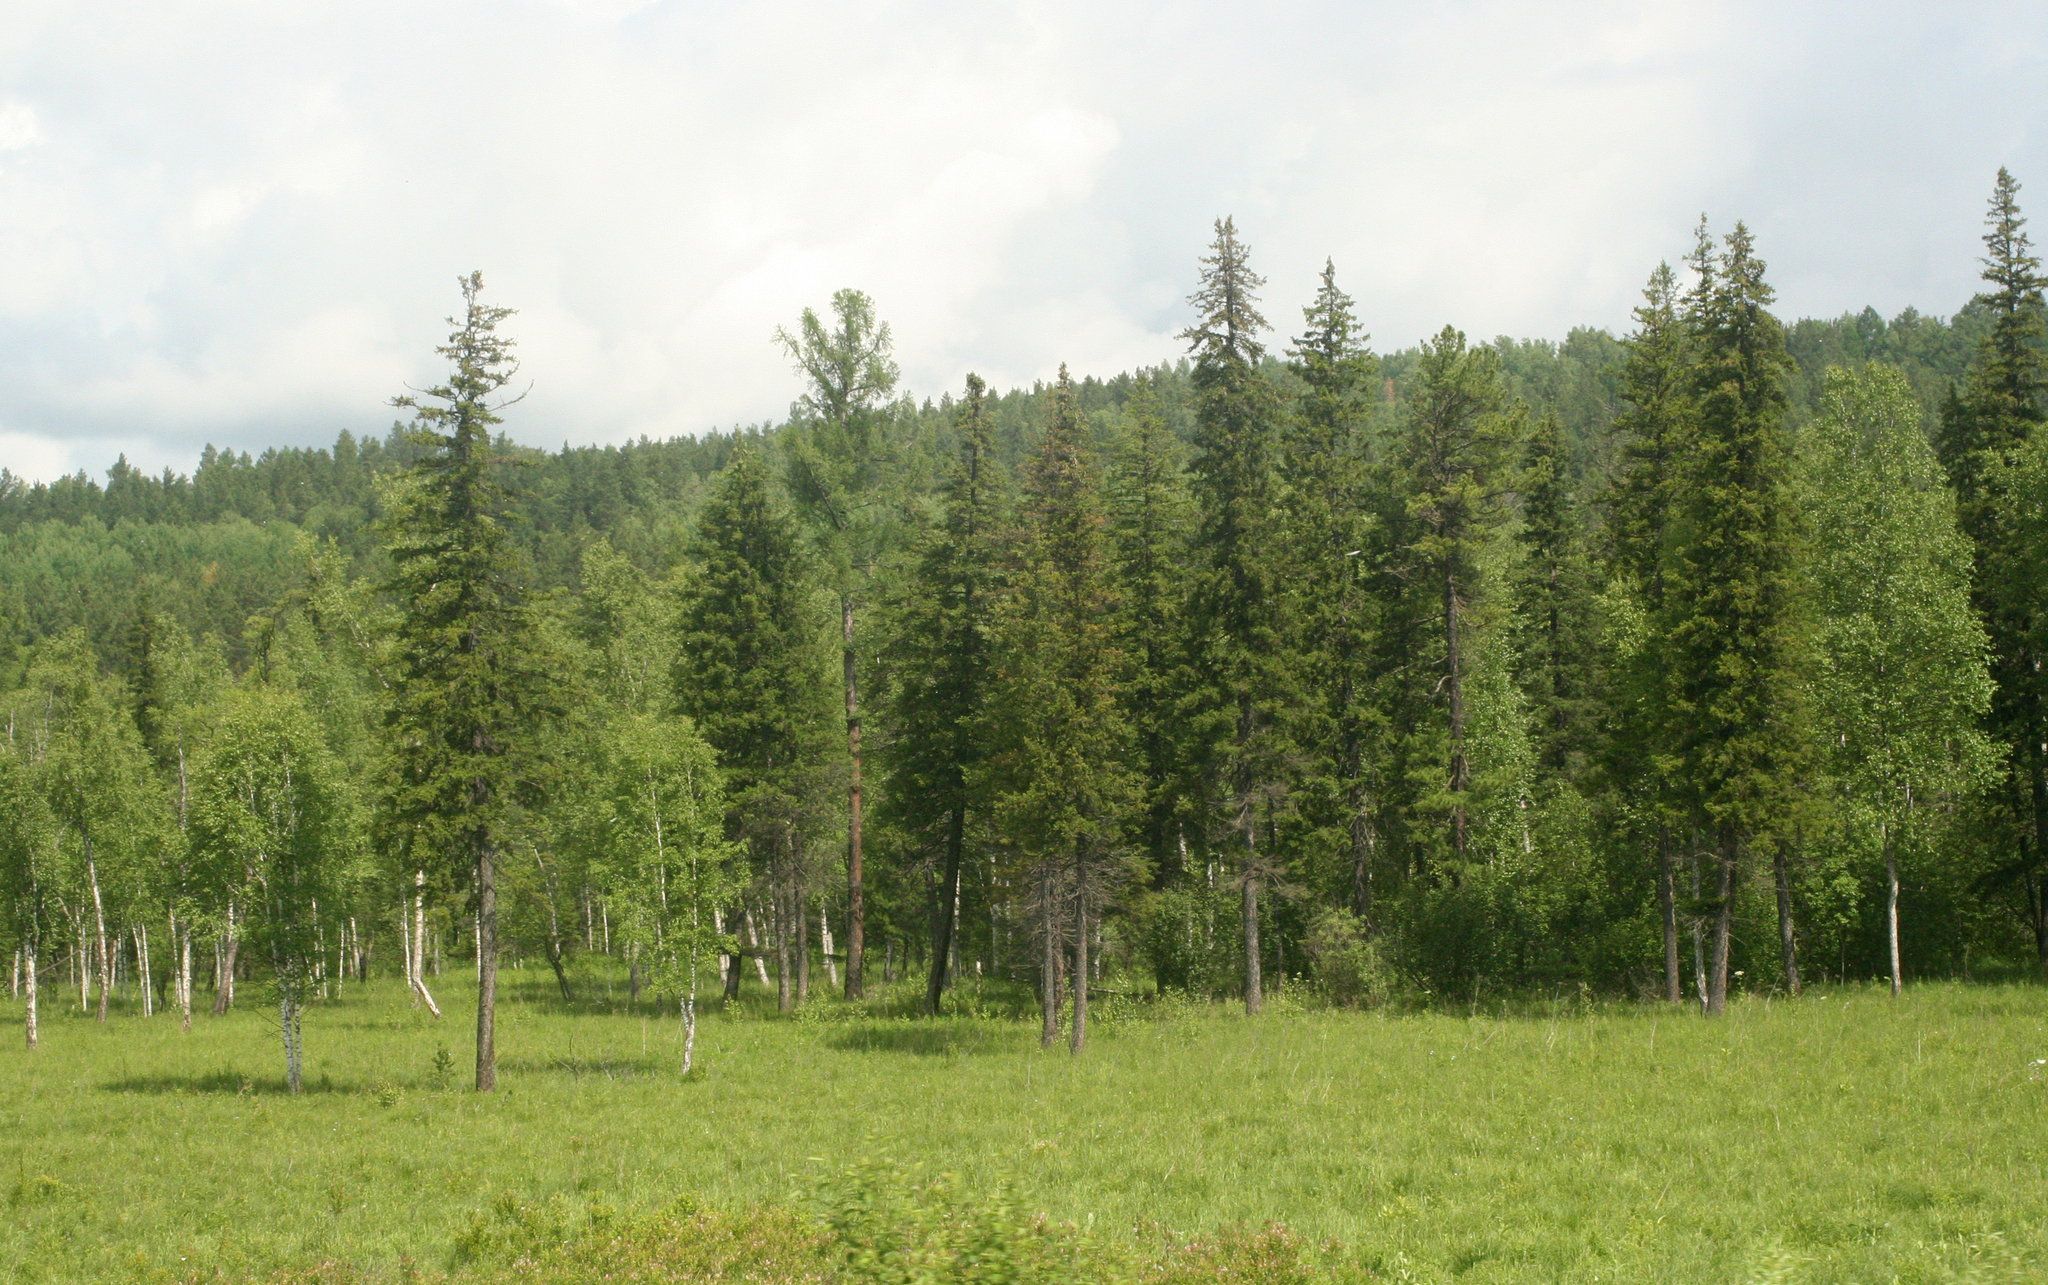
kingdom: Plantae
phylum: Tracheophyta
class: Pinopsida
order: Pinales
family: Pinaceae
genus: Picea
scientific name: Picea obovata
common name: Siberian spruce
